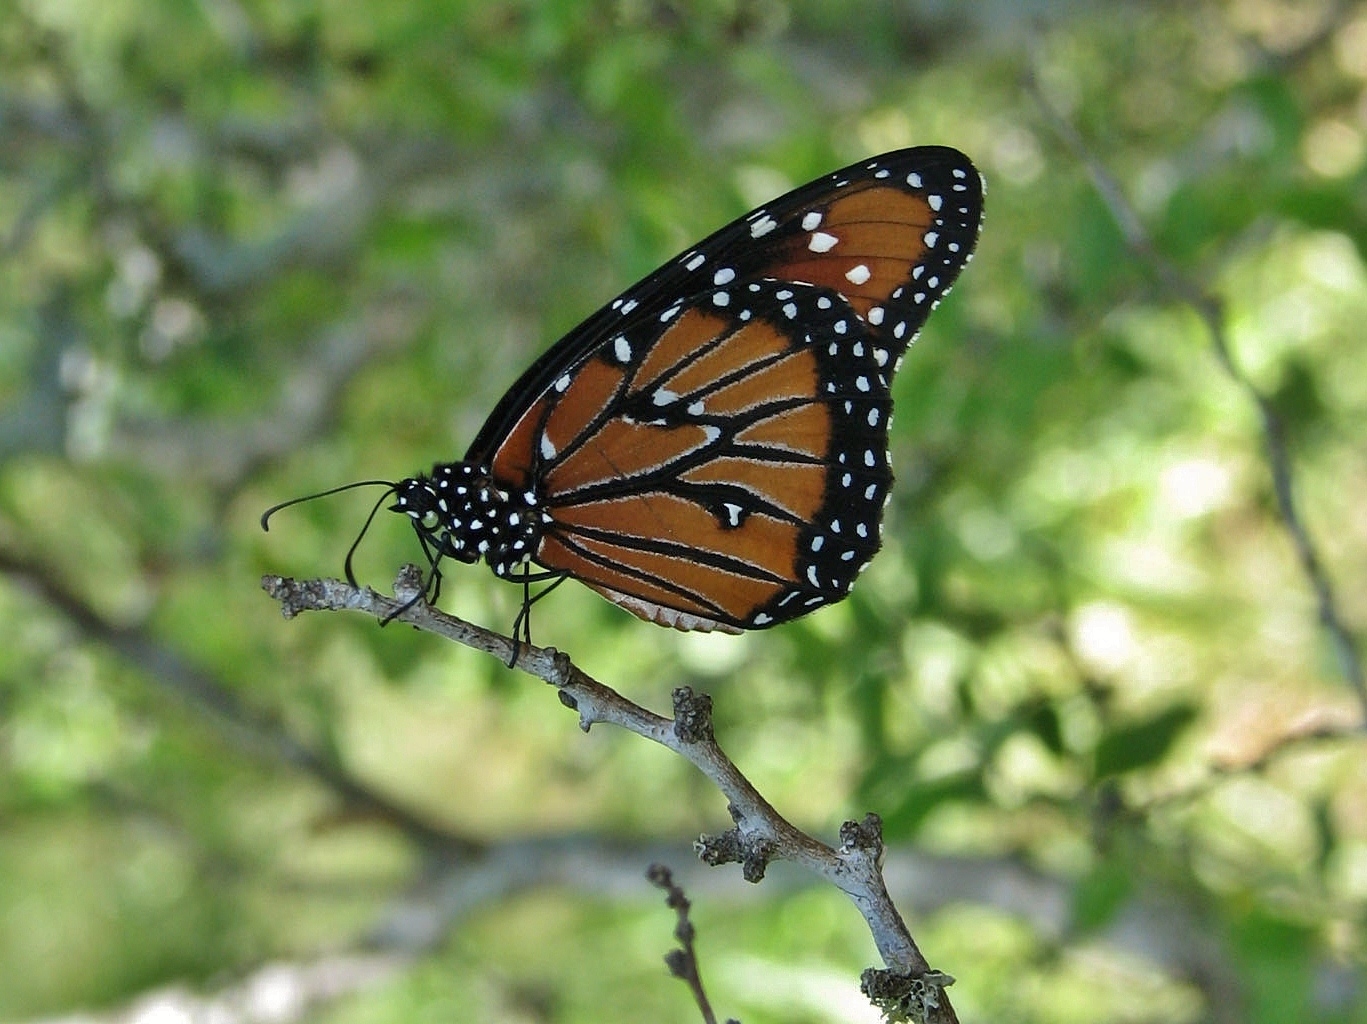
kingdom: Animalia
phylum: Arthropoda
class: Insecta
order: Lepidoptera
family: Nymphalidae
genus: Danaus
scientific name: Danaus gilippus
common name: Queen
